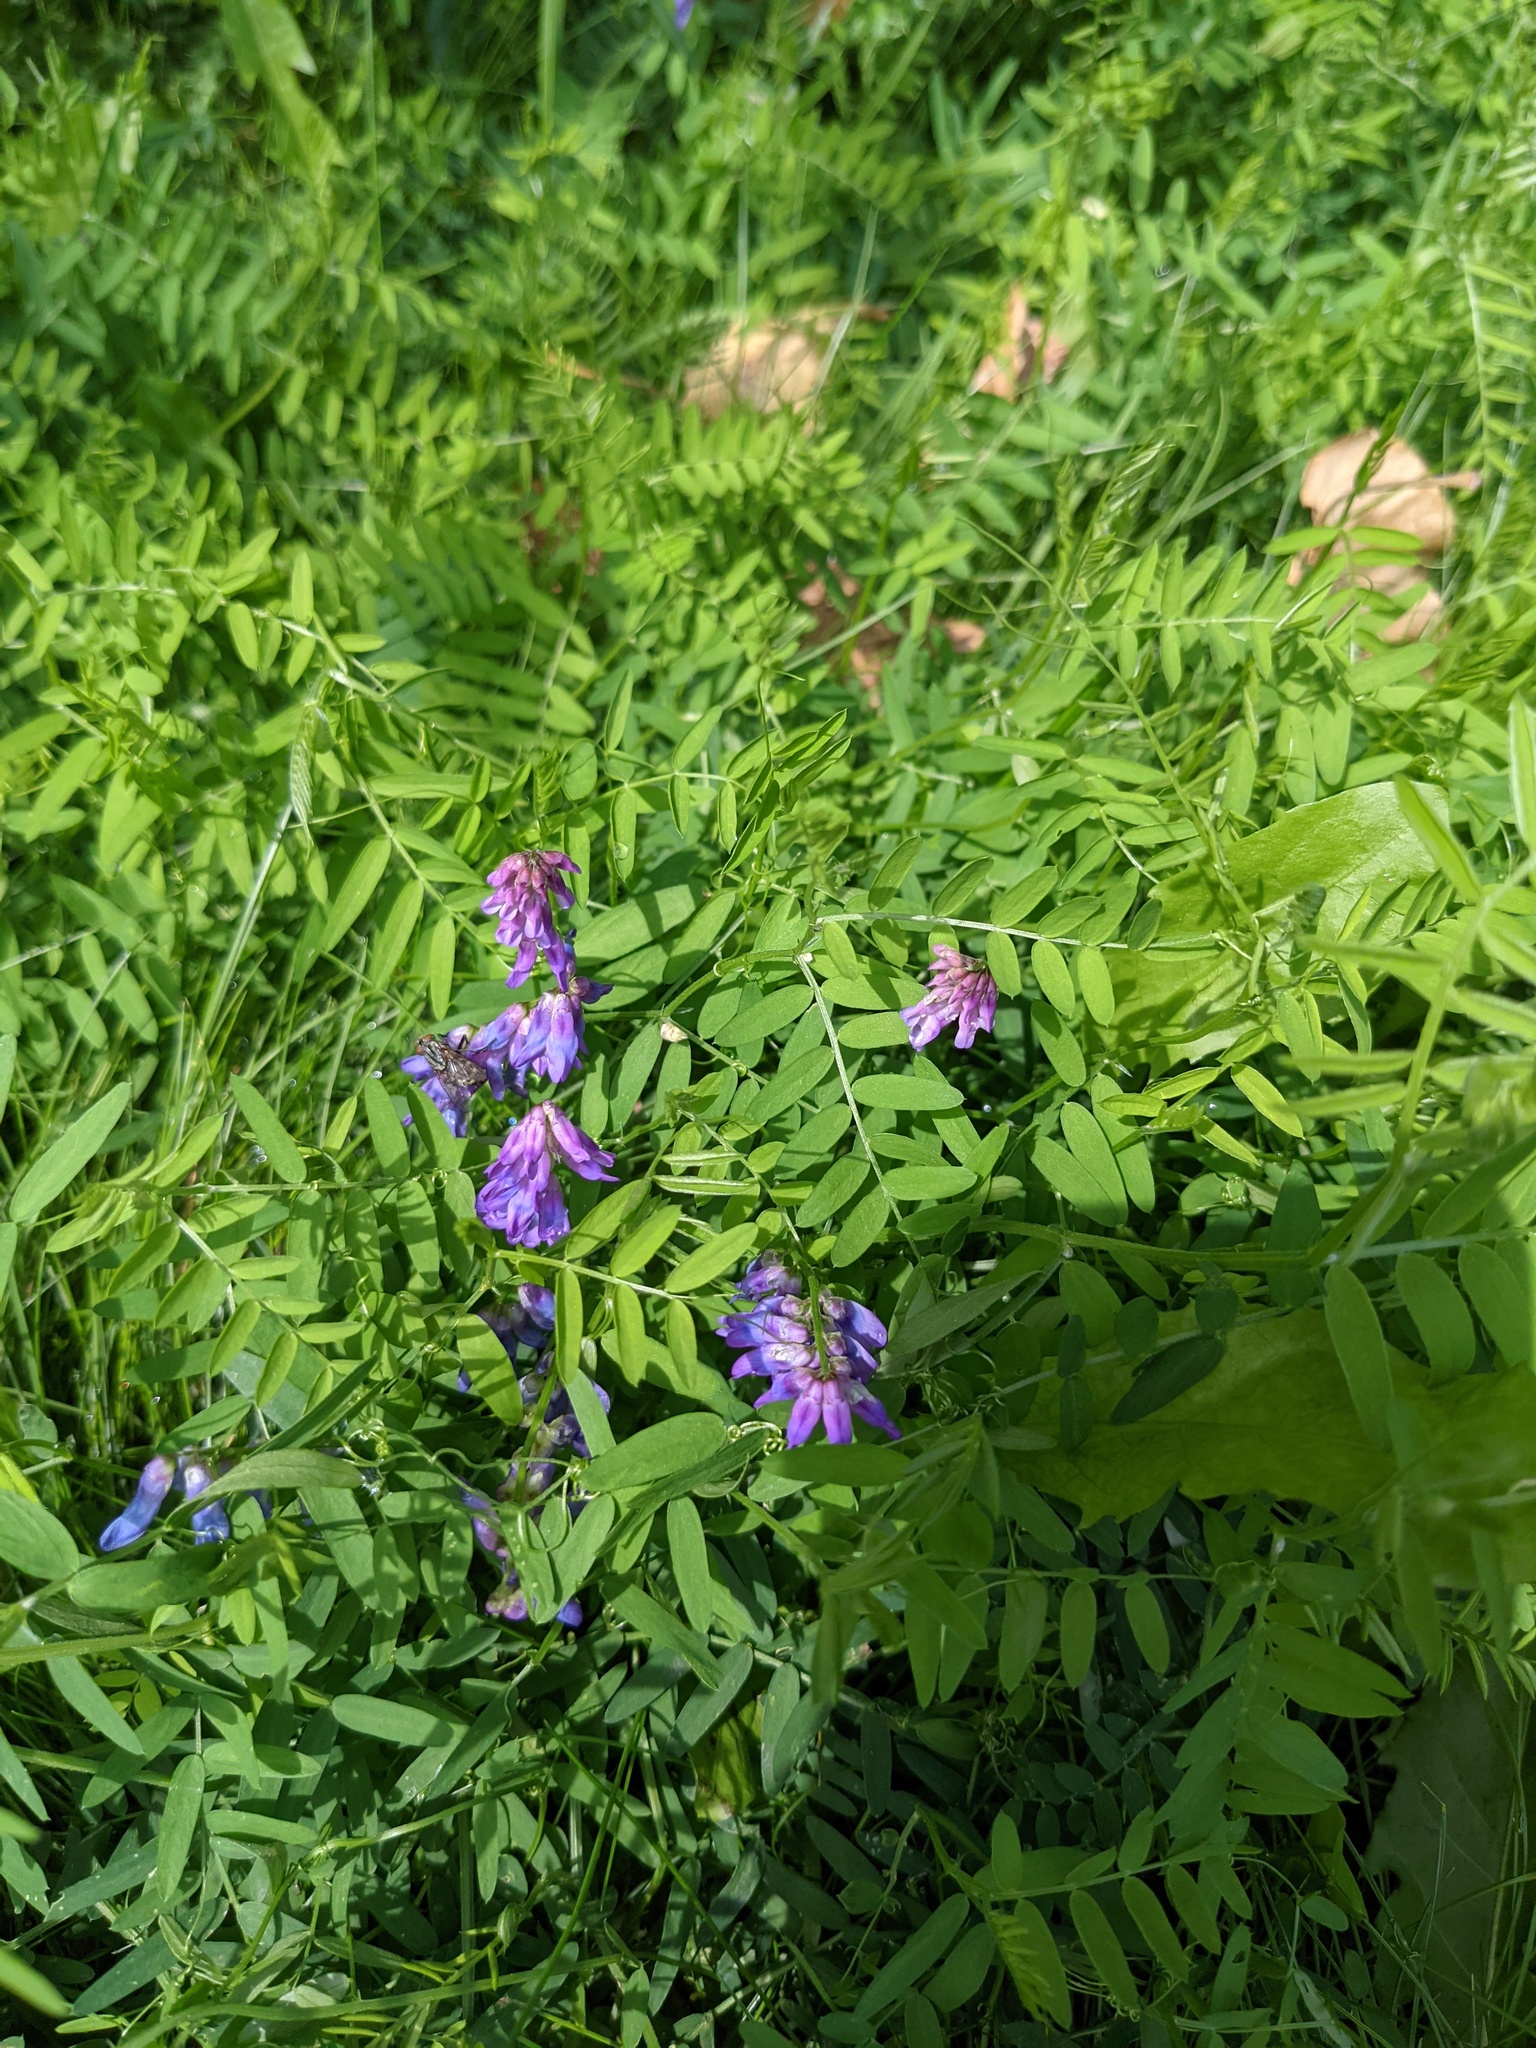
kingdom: Plantae
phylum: Tracheophyta
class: Magnoliopsida
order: Fabales
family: Fabaceae
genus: Vicia
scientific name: Vicia cracca
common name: Bird vetch
